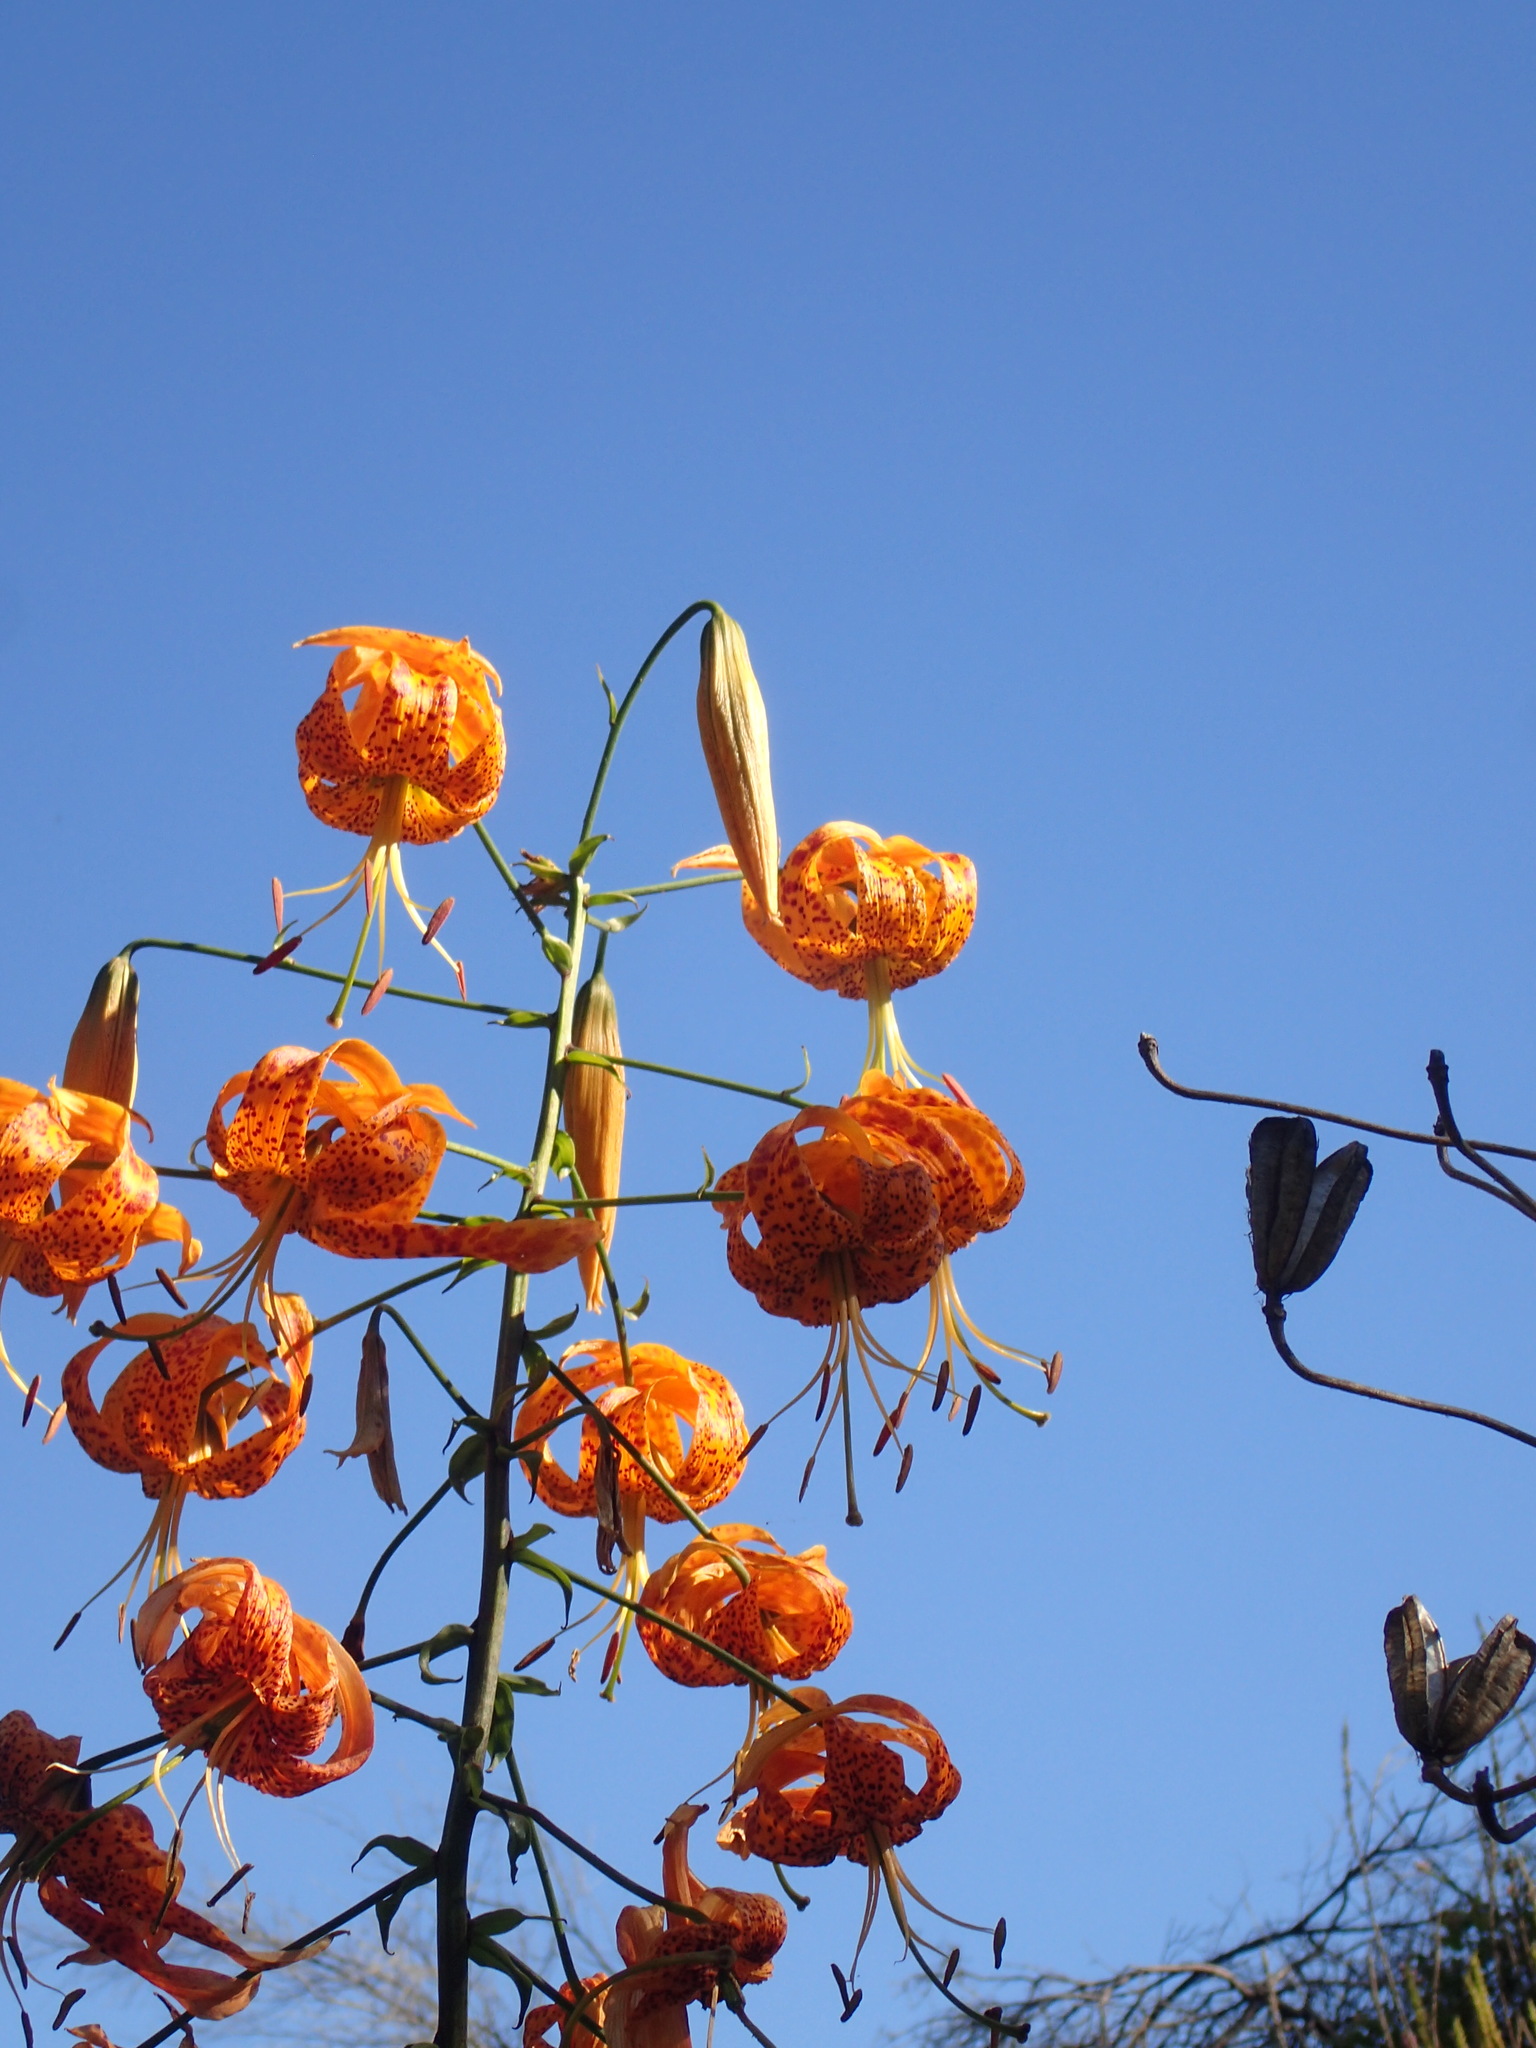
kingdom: Plantae
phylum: Tracheophyta
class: Liliopsida
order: Liliales
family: Liliaceae
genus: Lilium
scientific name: Lilium humboldtii
